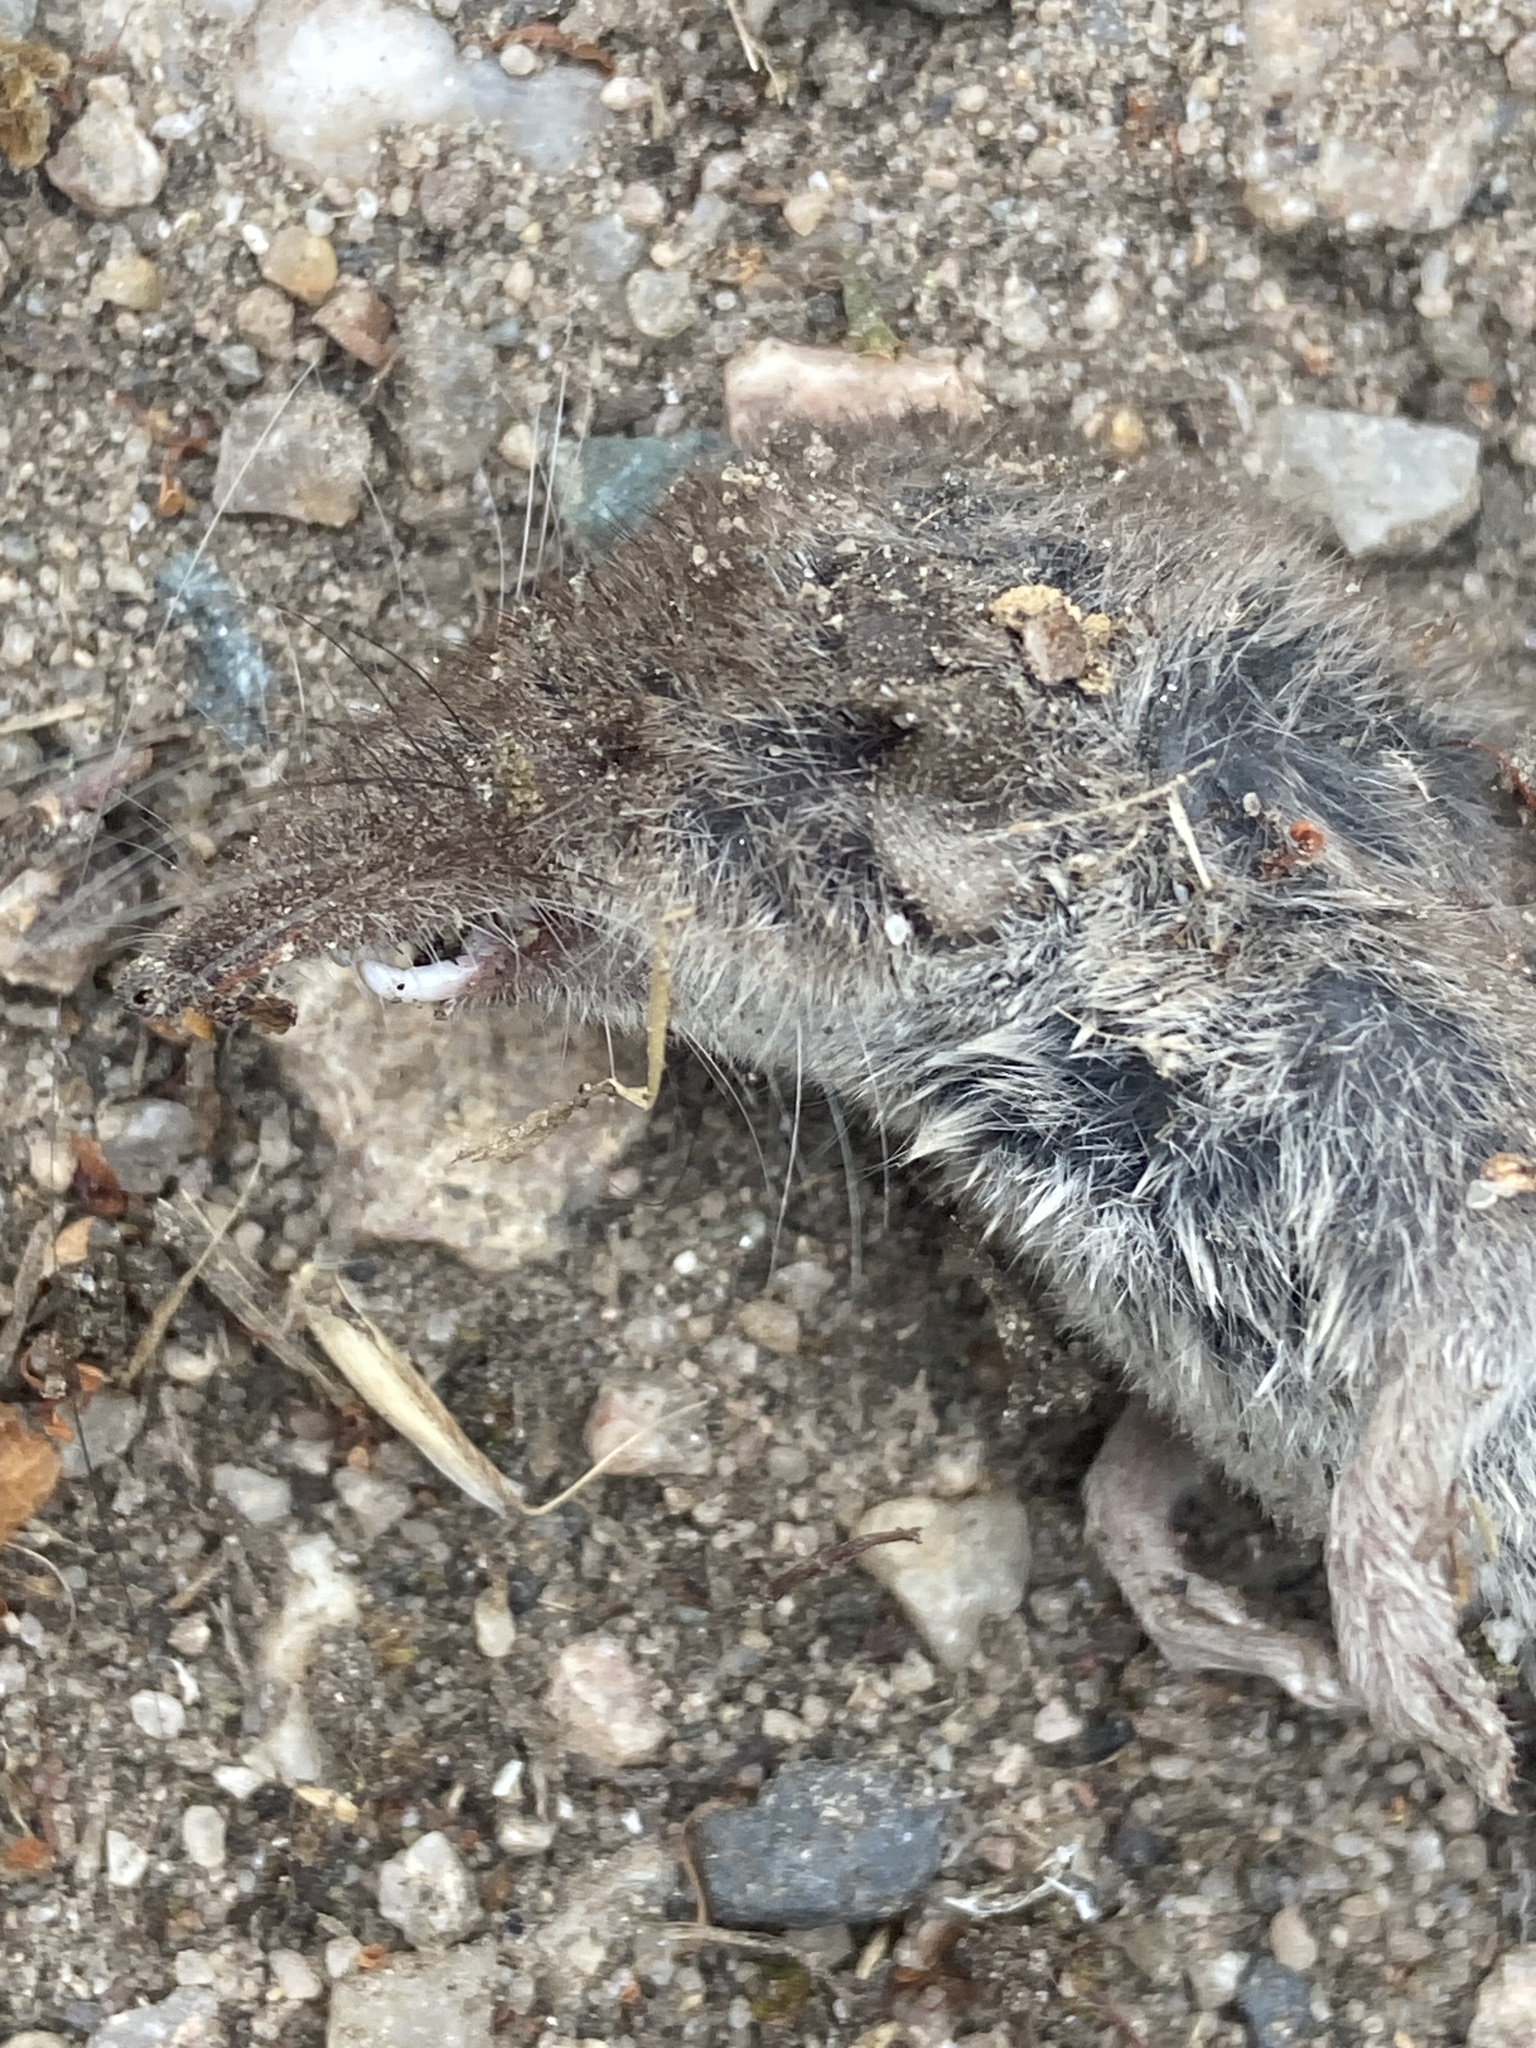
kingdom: Animalia
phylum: Chordata
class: Mammalia
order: Soricomorpha
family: Soricidae
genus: Crocidura
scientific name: Crocidura russula
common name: Greater white-toothed shrew
